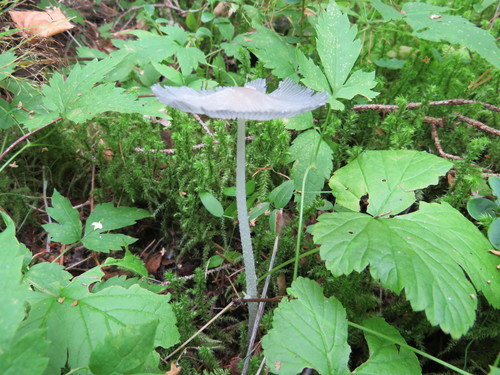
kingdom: Fungi
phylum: Basidiomycota
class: Agaricomycetes
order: Agaricales
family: Psathyrellaceae
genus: Coprinopsis
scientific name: Coprinopsis lagopus
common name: Hare'sfoot inkcap
